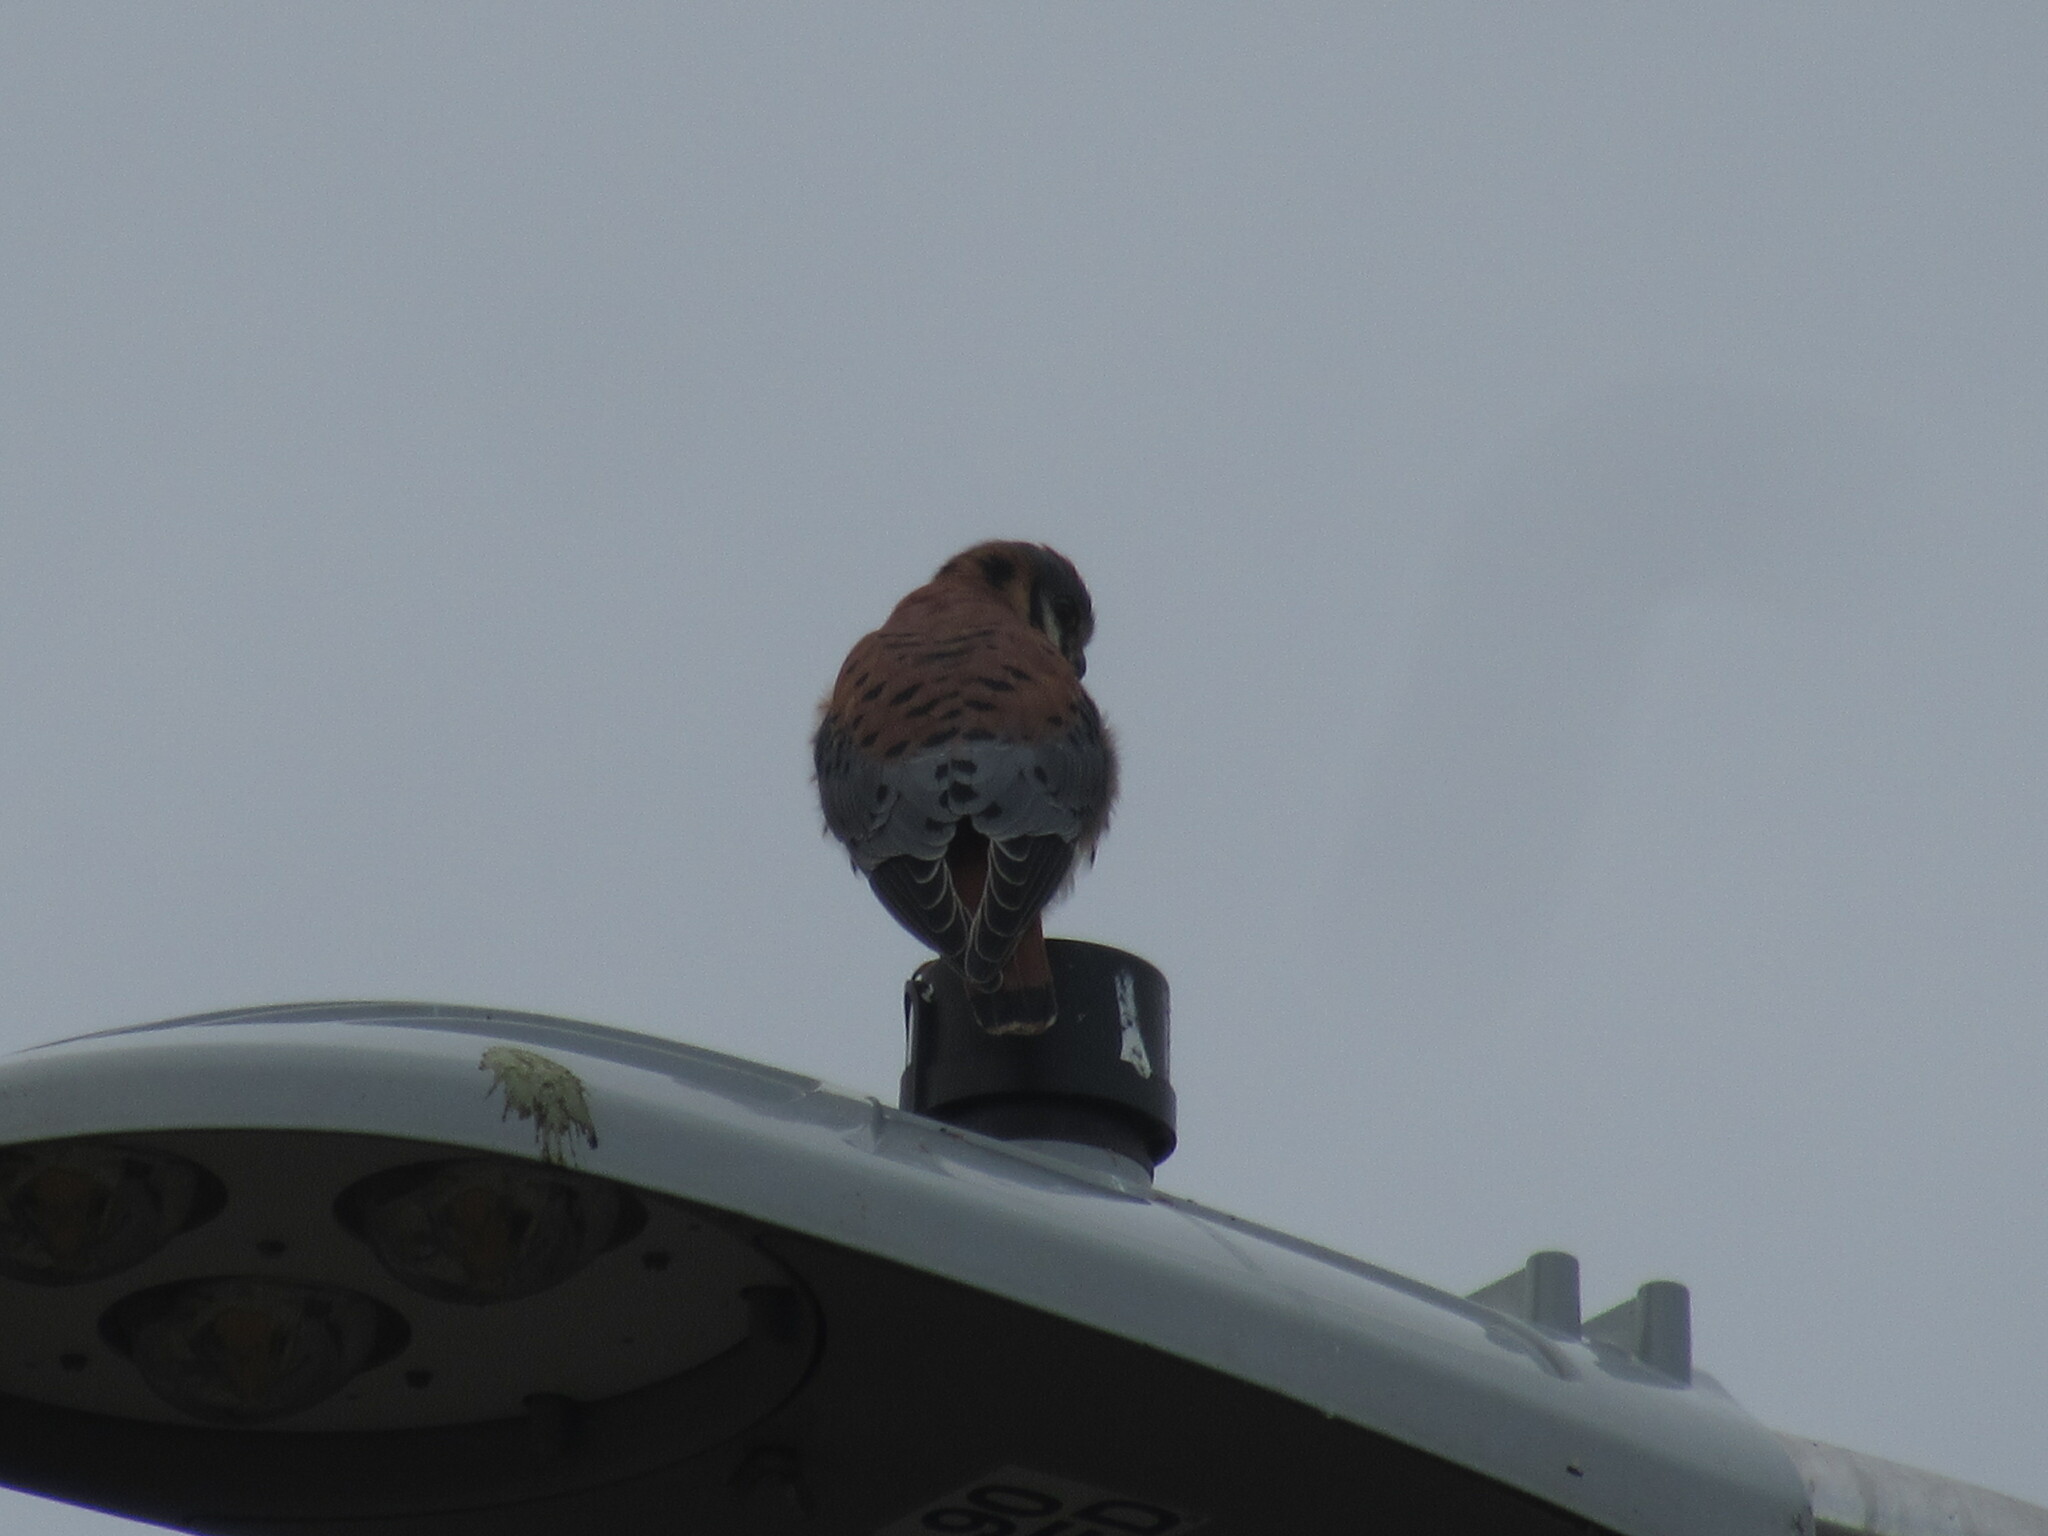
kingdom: Animalia
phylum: Chordata
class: Aves
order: Falconiformes
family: Falconidae
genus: Falco
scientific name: Falco sparverius
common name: American kestrel
